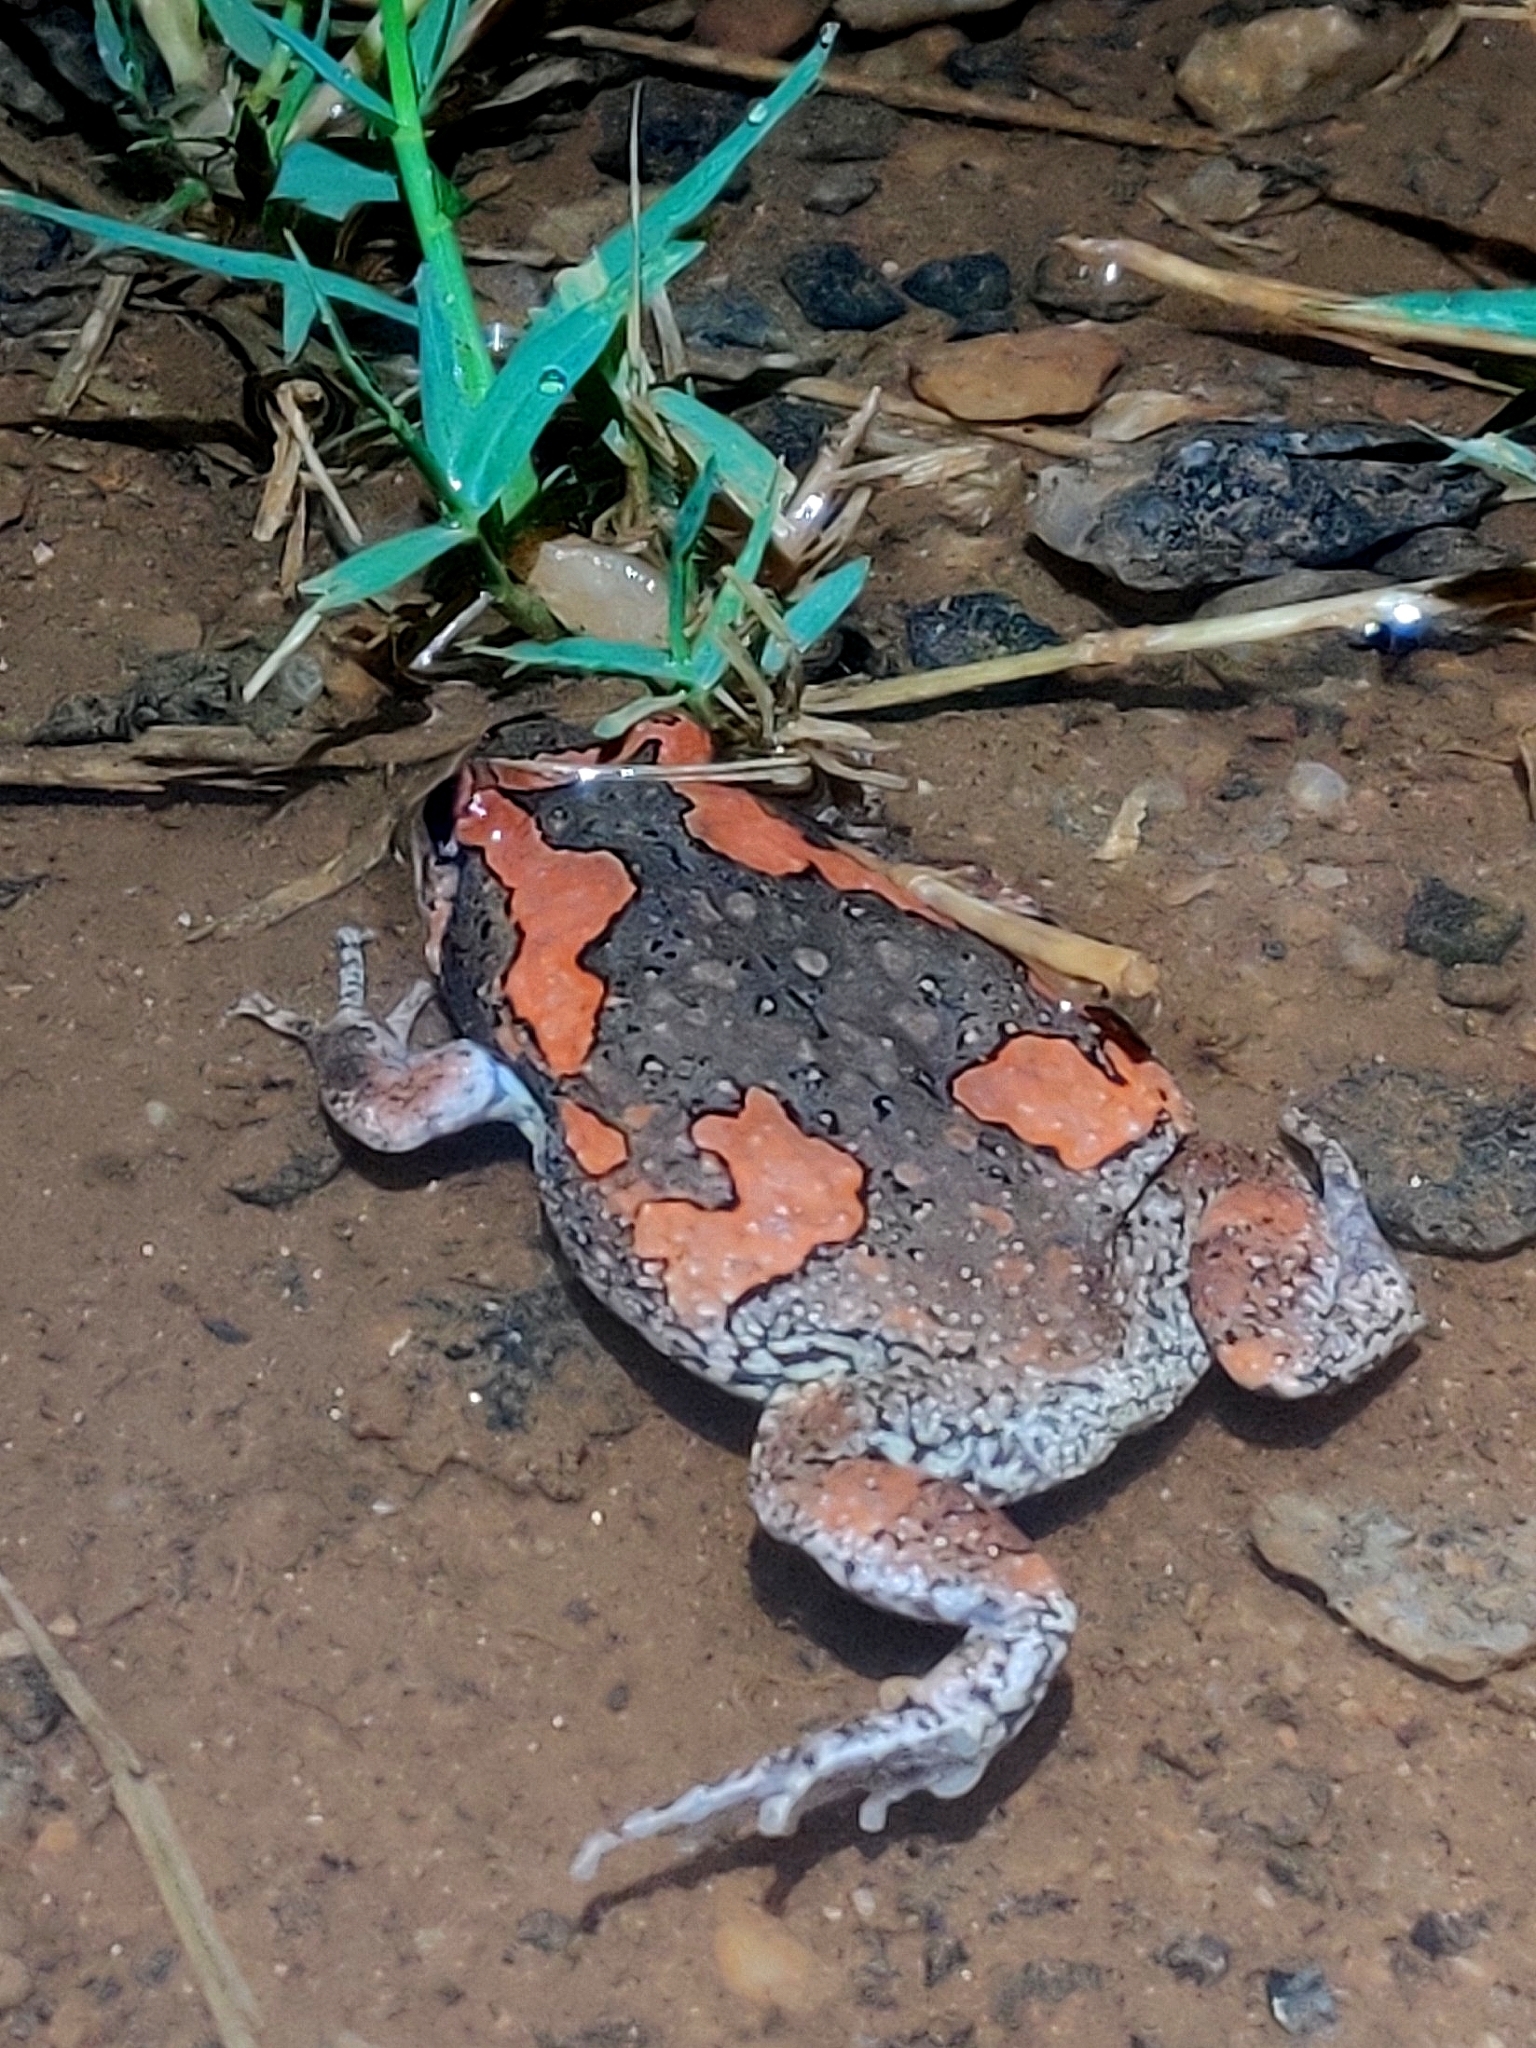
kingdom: Animalia
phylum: Chordata
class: Amphibia
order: Anura
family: Microhylidae
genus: Uperodon
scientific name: Uperodon taprobanicus
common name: Ceylon kaloula
